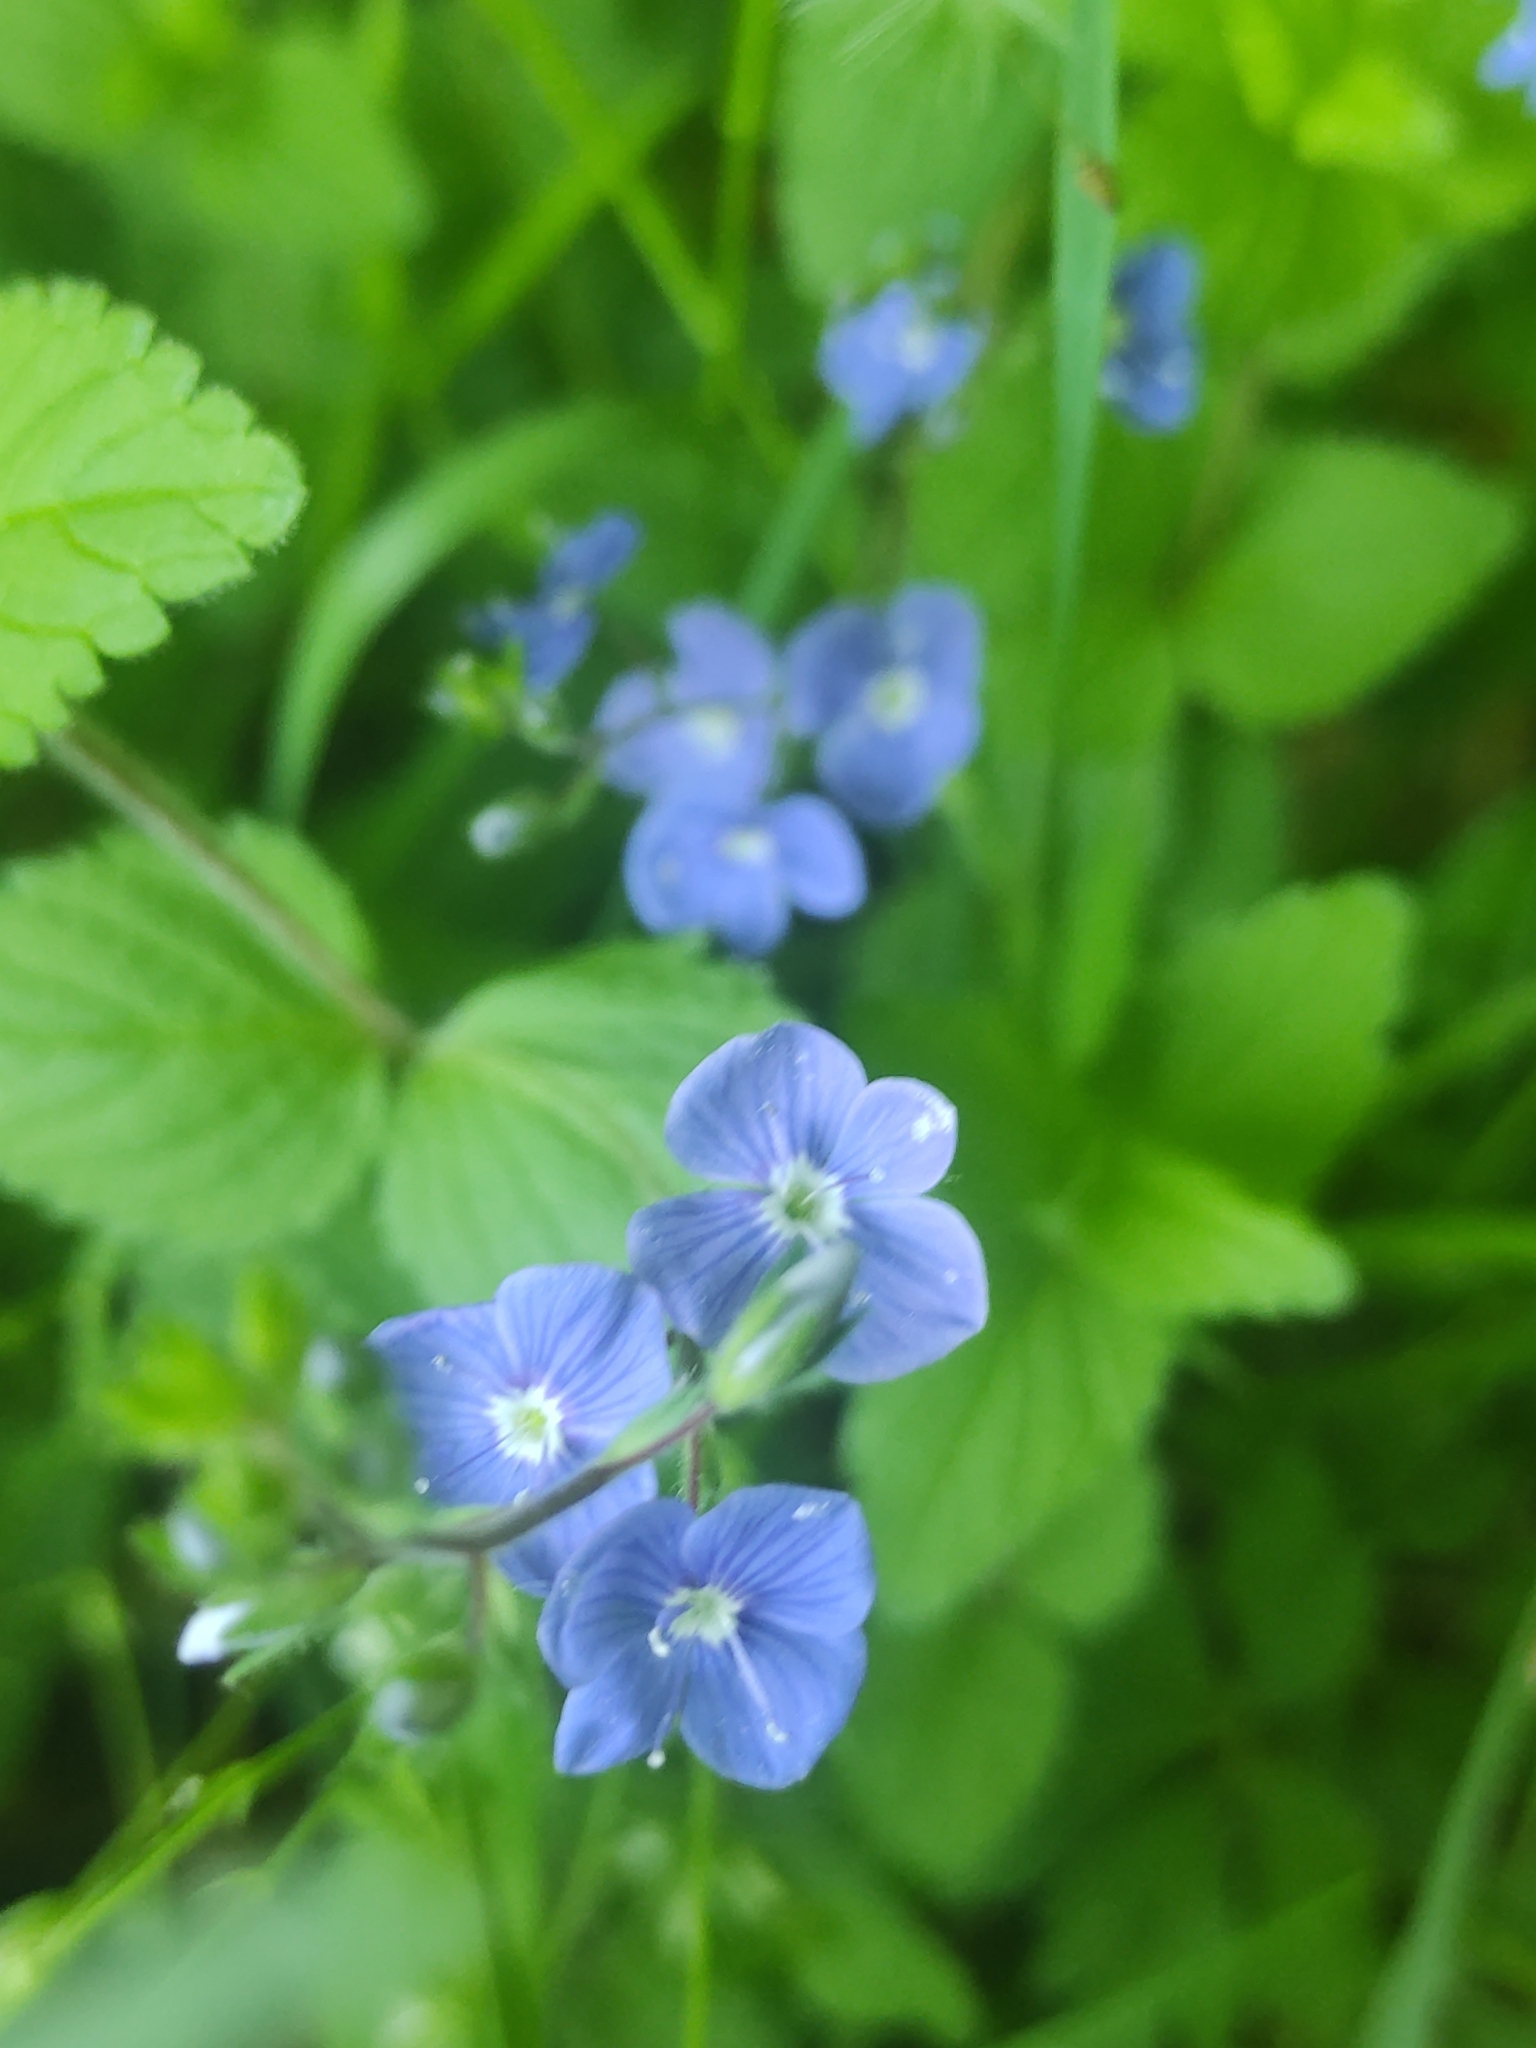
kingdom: Plantae
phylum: Tracheophyta
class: Magnoliopsida
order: Lamiales
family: Plantaginaceae
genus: Veronica
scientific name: Veronica chamaedrys
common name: Germander speedwell
